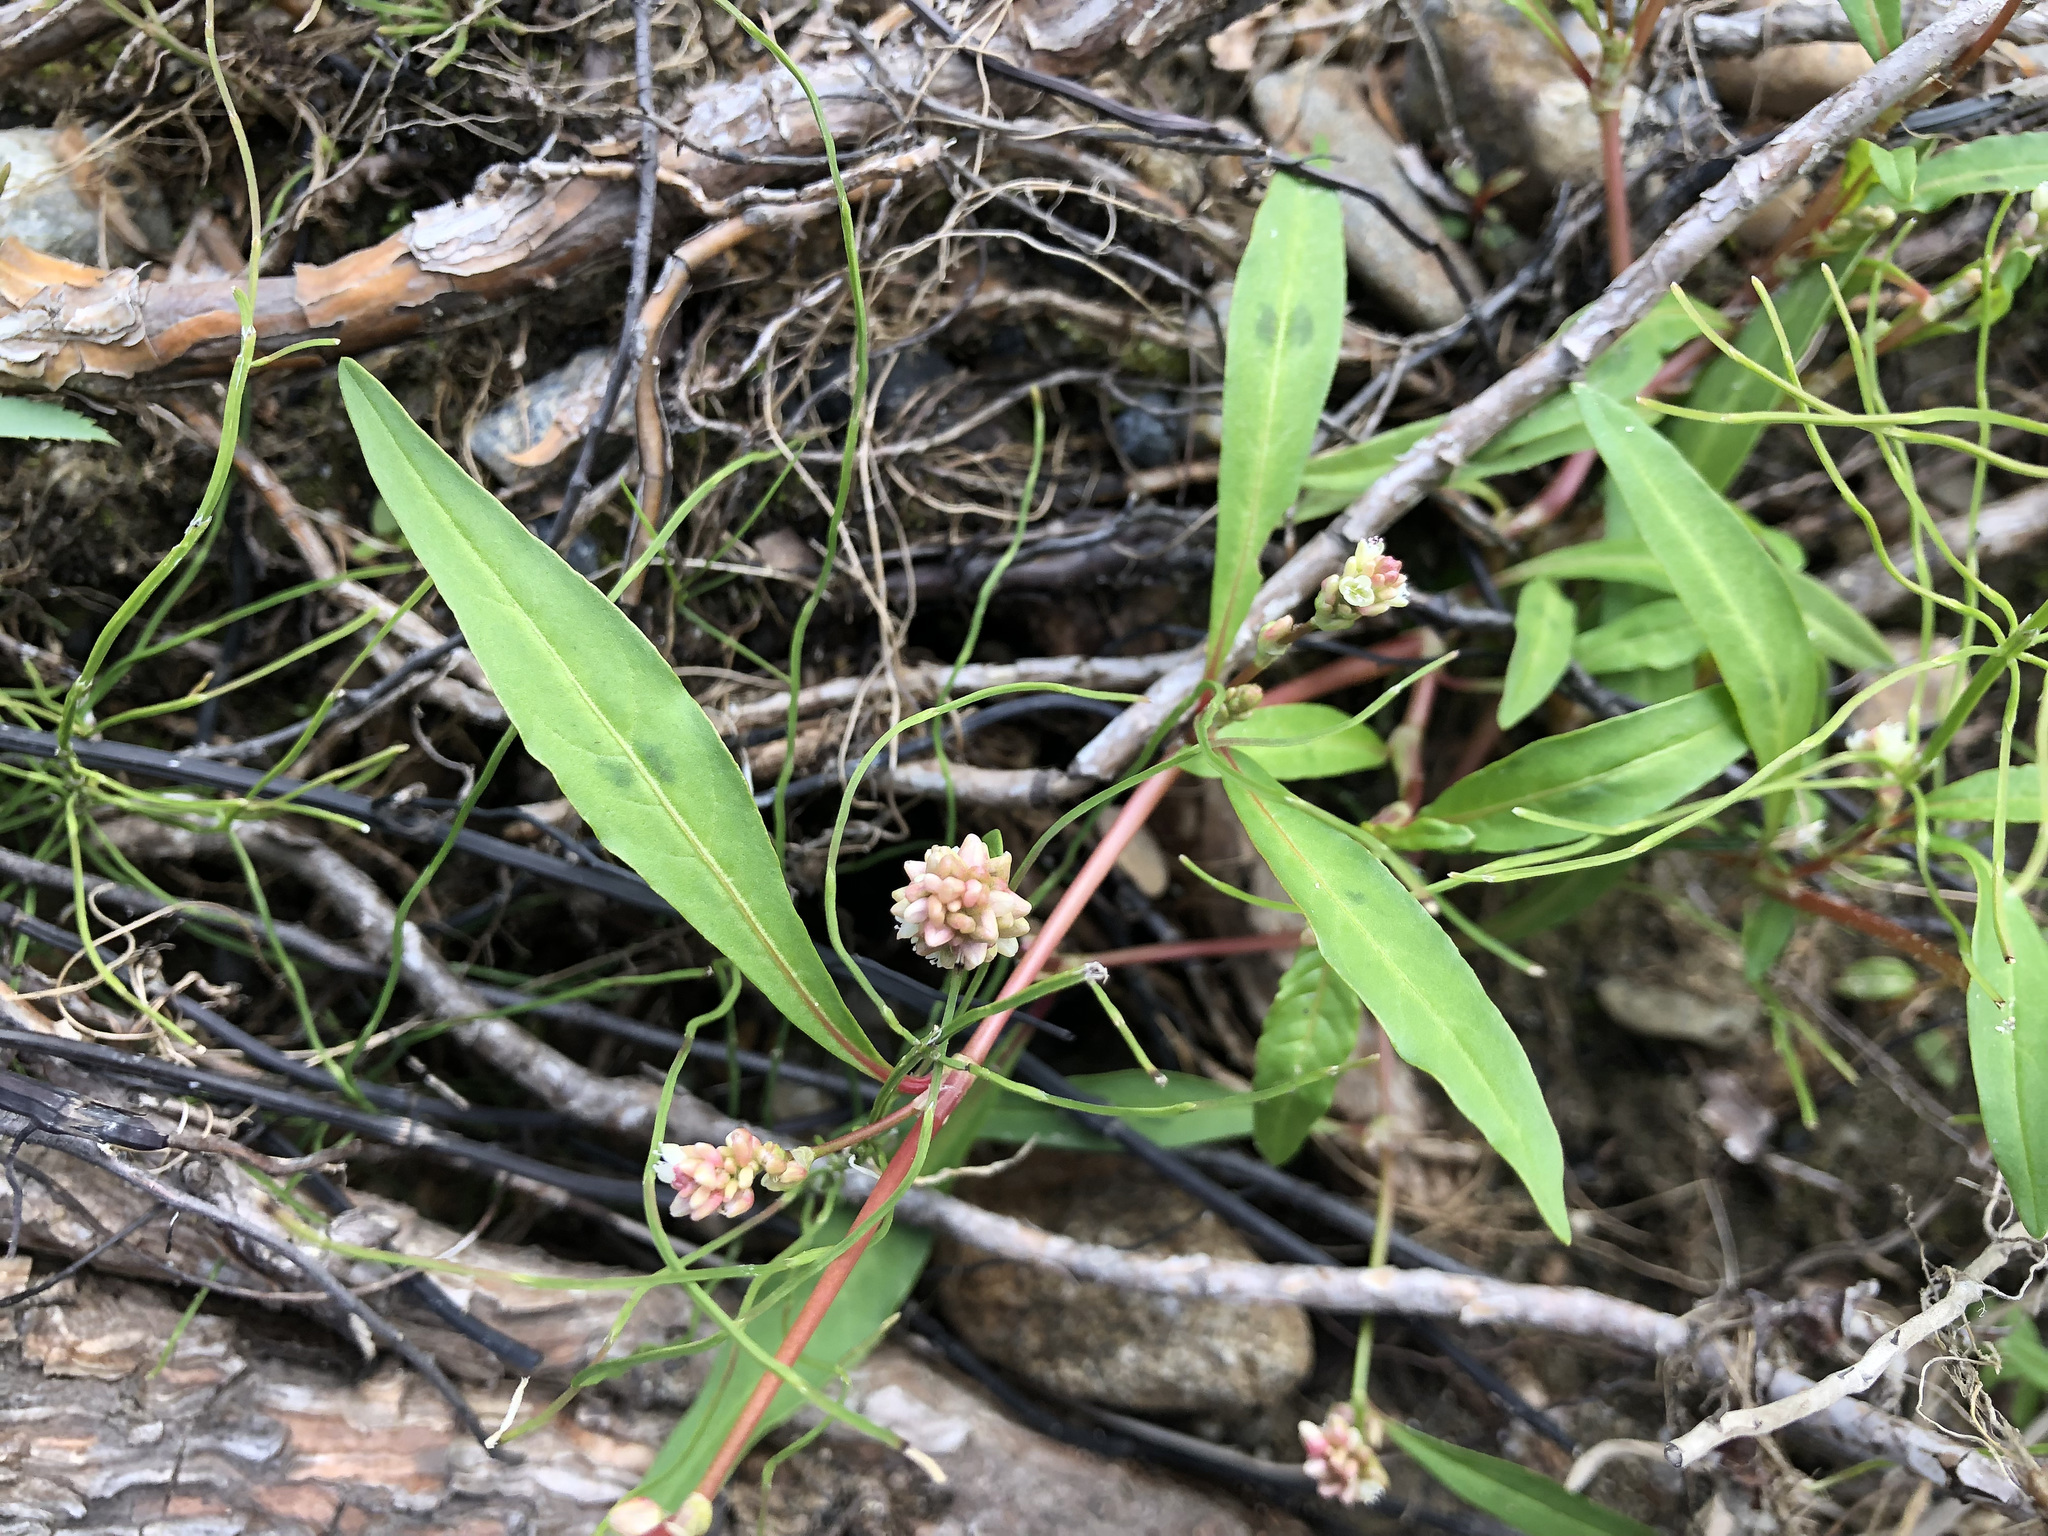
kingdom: Plantae
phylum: Tracheophyta
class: Magnoliopsida
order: Caryophyllales
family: Polygonaceae
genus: Persicaria
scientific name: Persicaria lapathifolia
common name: Curlytop knotweed
